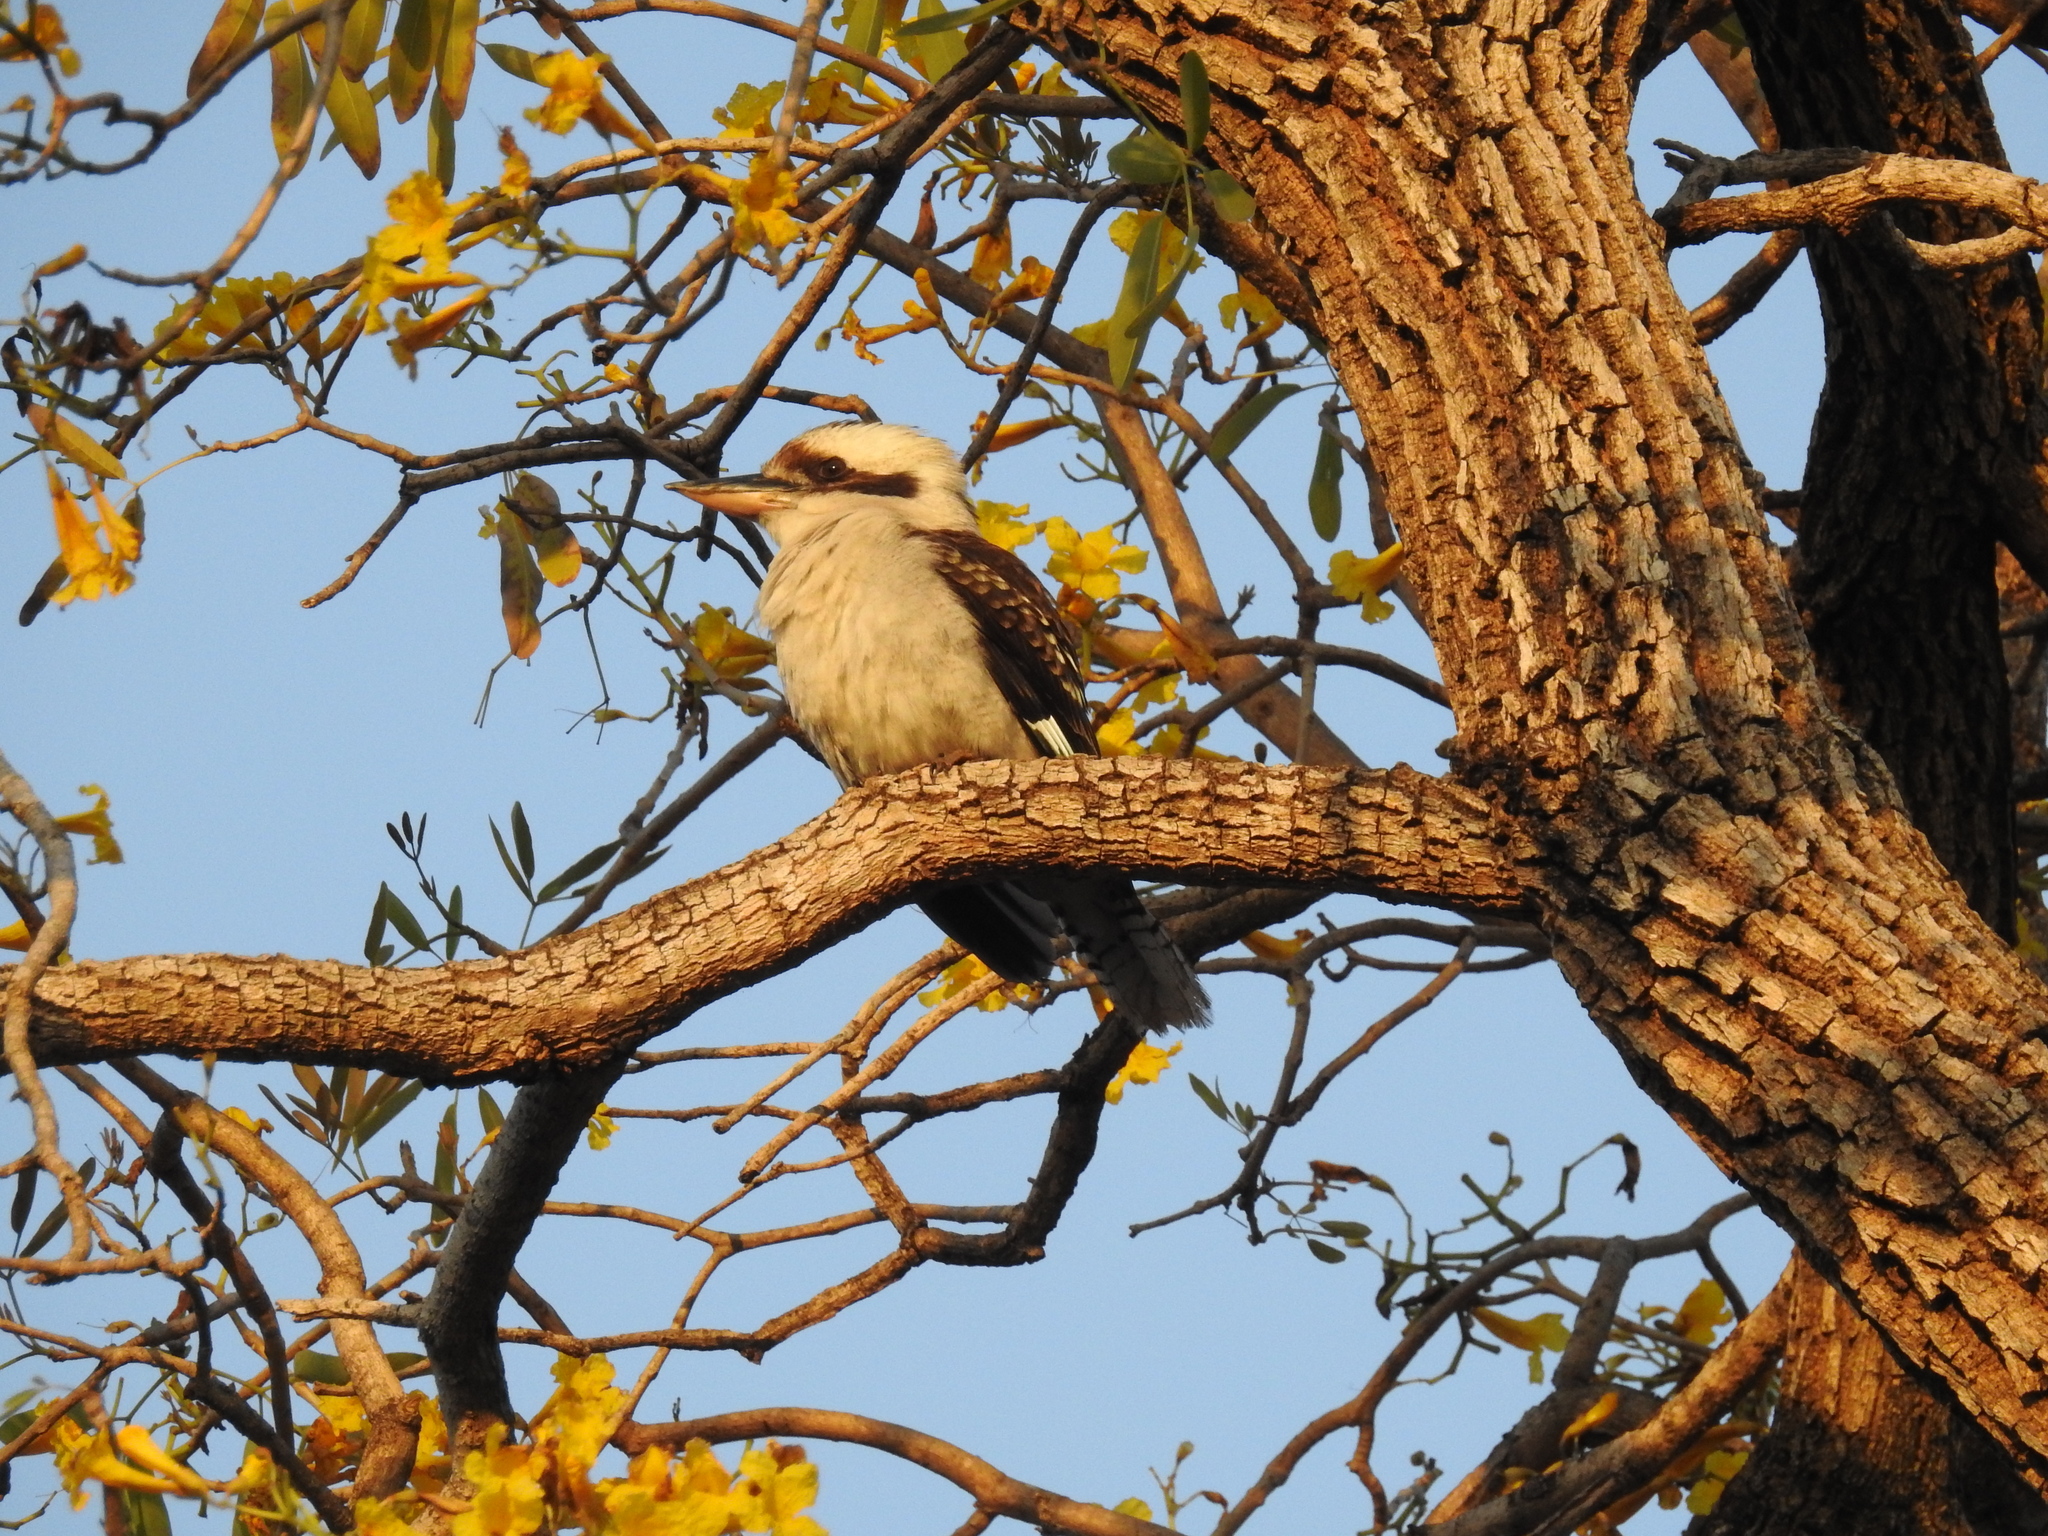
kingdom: Animalia
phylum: Chordata
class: Aves
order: Coraciiformes
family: Alcedinidae
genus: Dacelo
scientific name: Dacelo novaeguineae
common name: Laughing kookaburra
